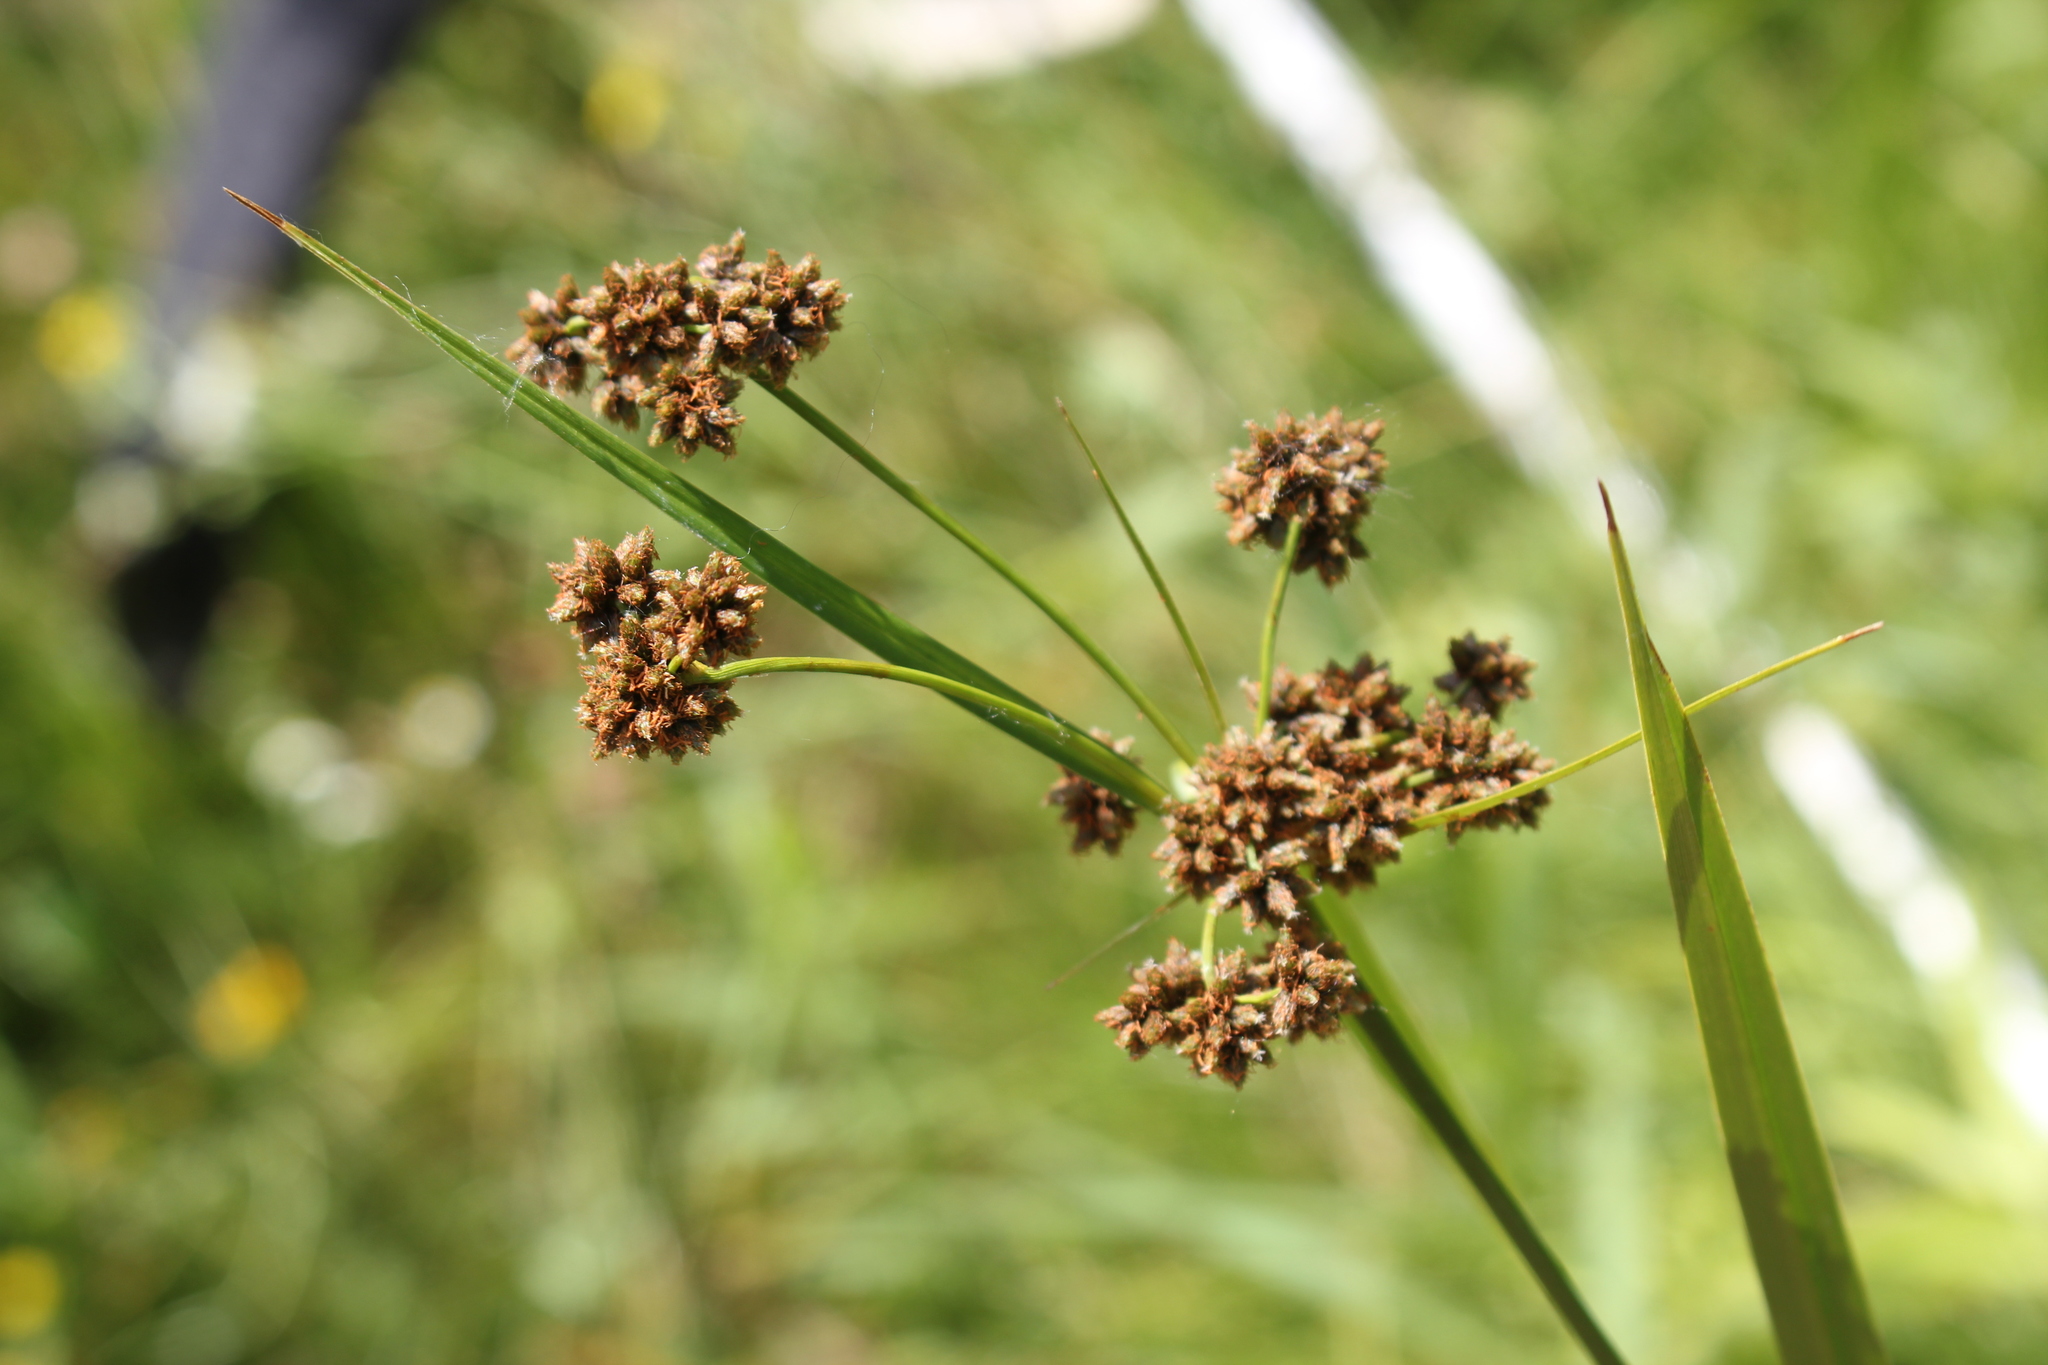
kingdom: Plantae
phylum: Tracheophyta
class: Liliopsida
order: Poales
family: Cyperaceae
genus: Scirpus
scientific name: Scirpus atrovirens
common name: Black bulrush
